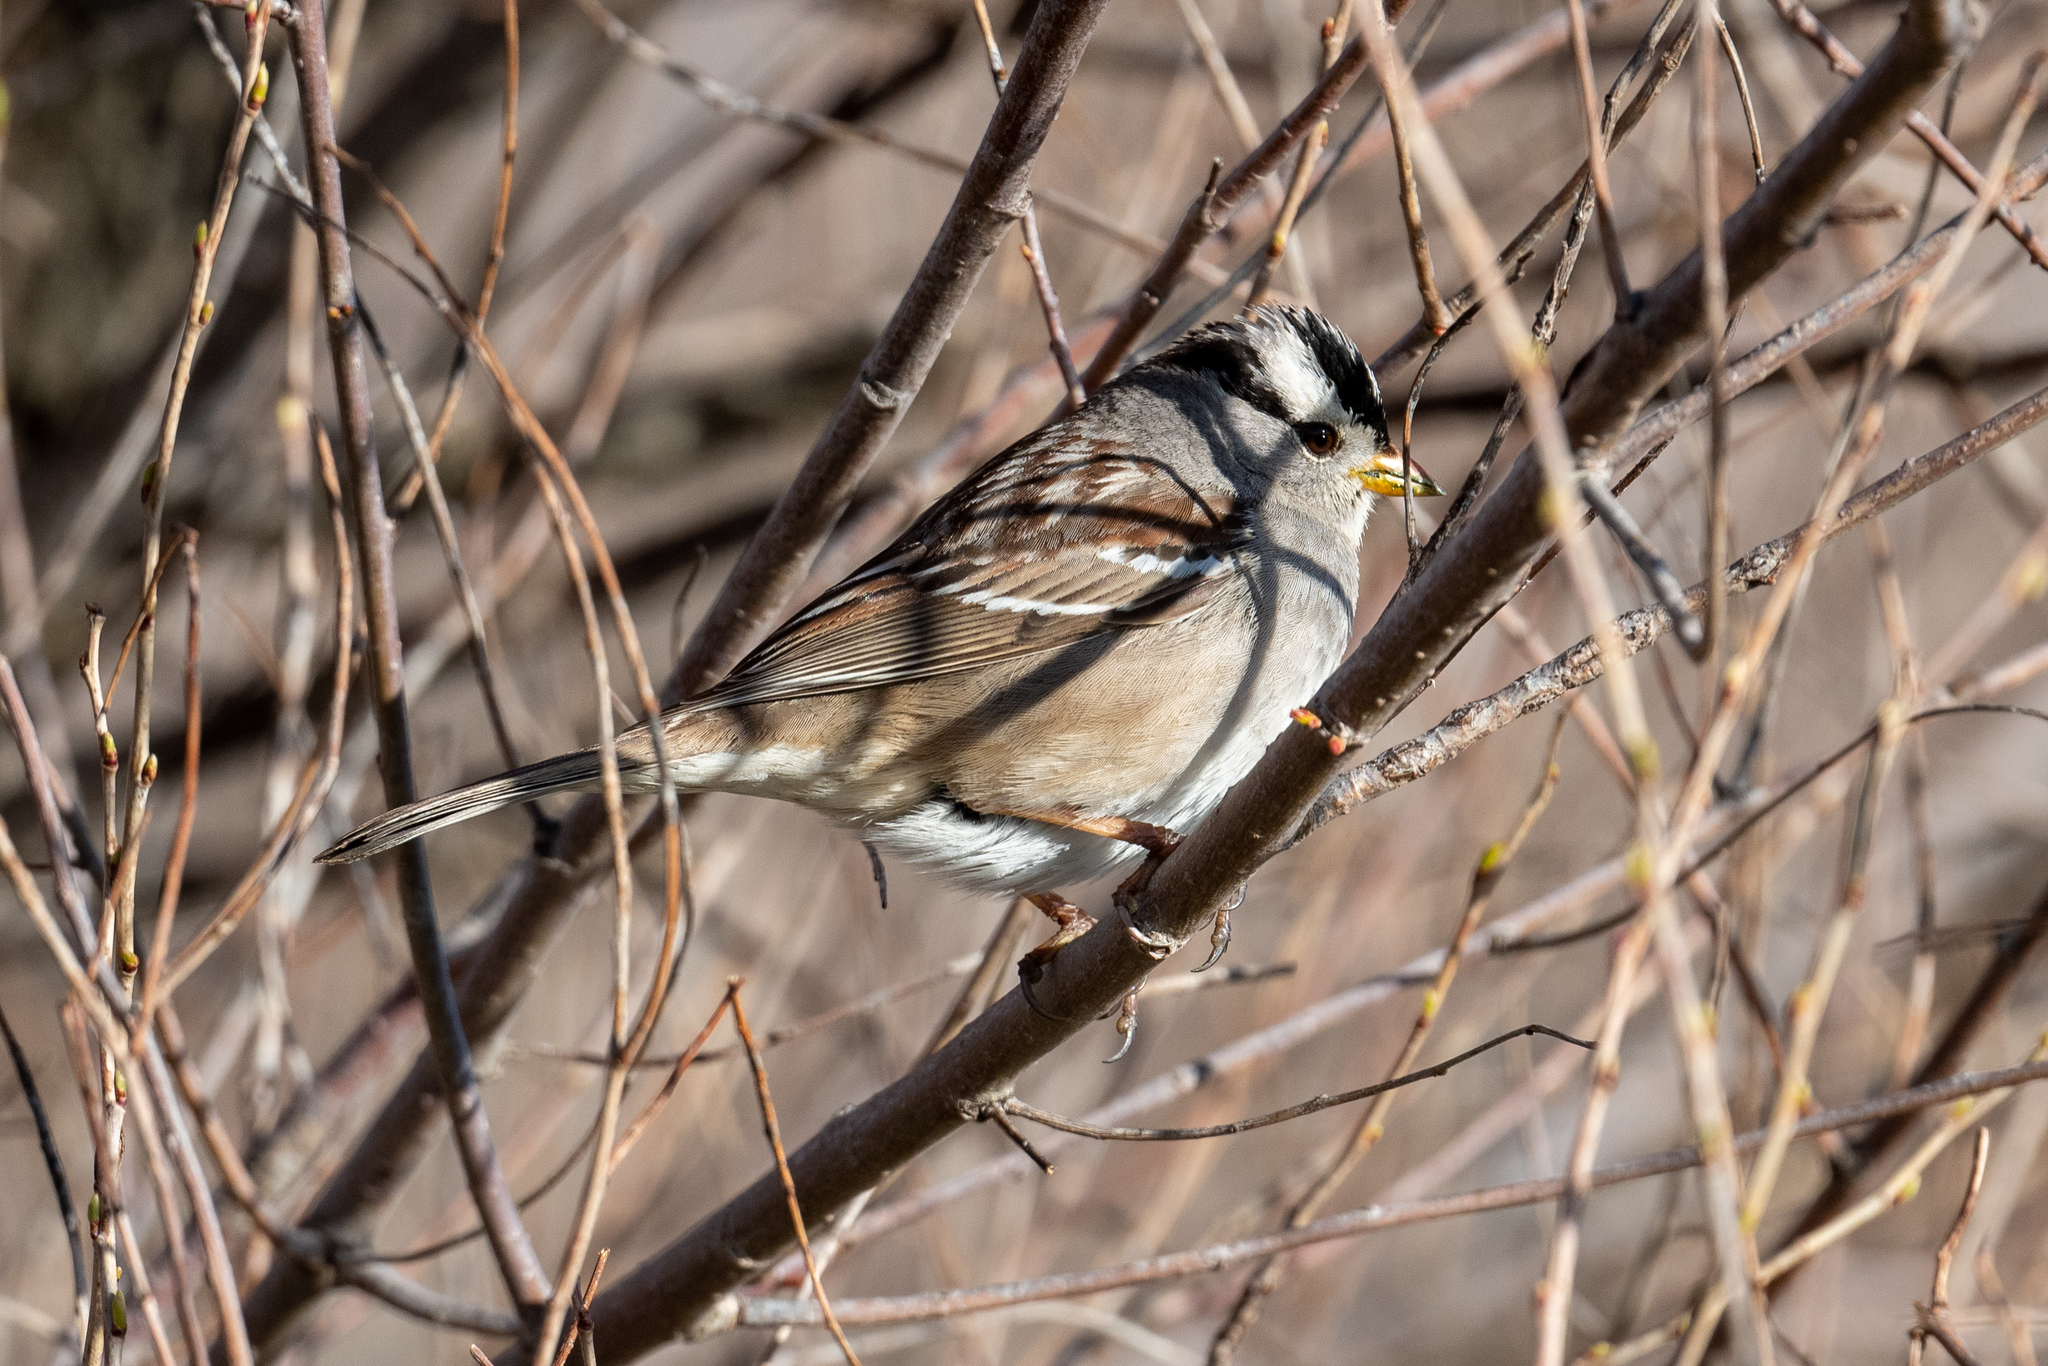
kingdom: Animalia
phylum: Chordata
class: Aves
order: Passeriformes
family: Passerellidae
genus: Zonotrichia
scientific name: Zonotrichia leucophrys
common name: White-crowned sparrow
